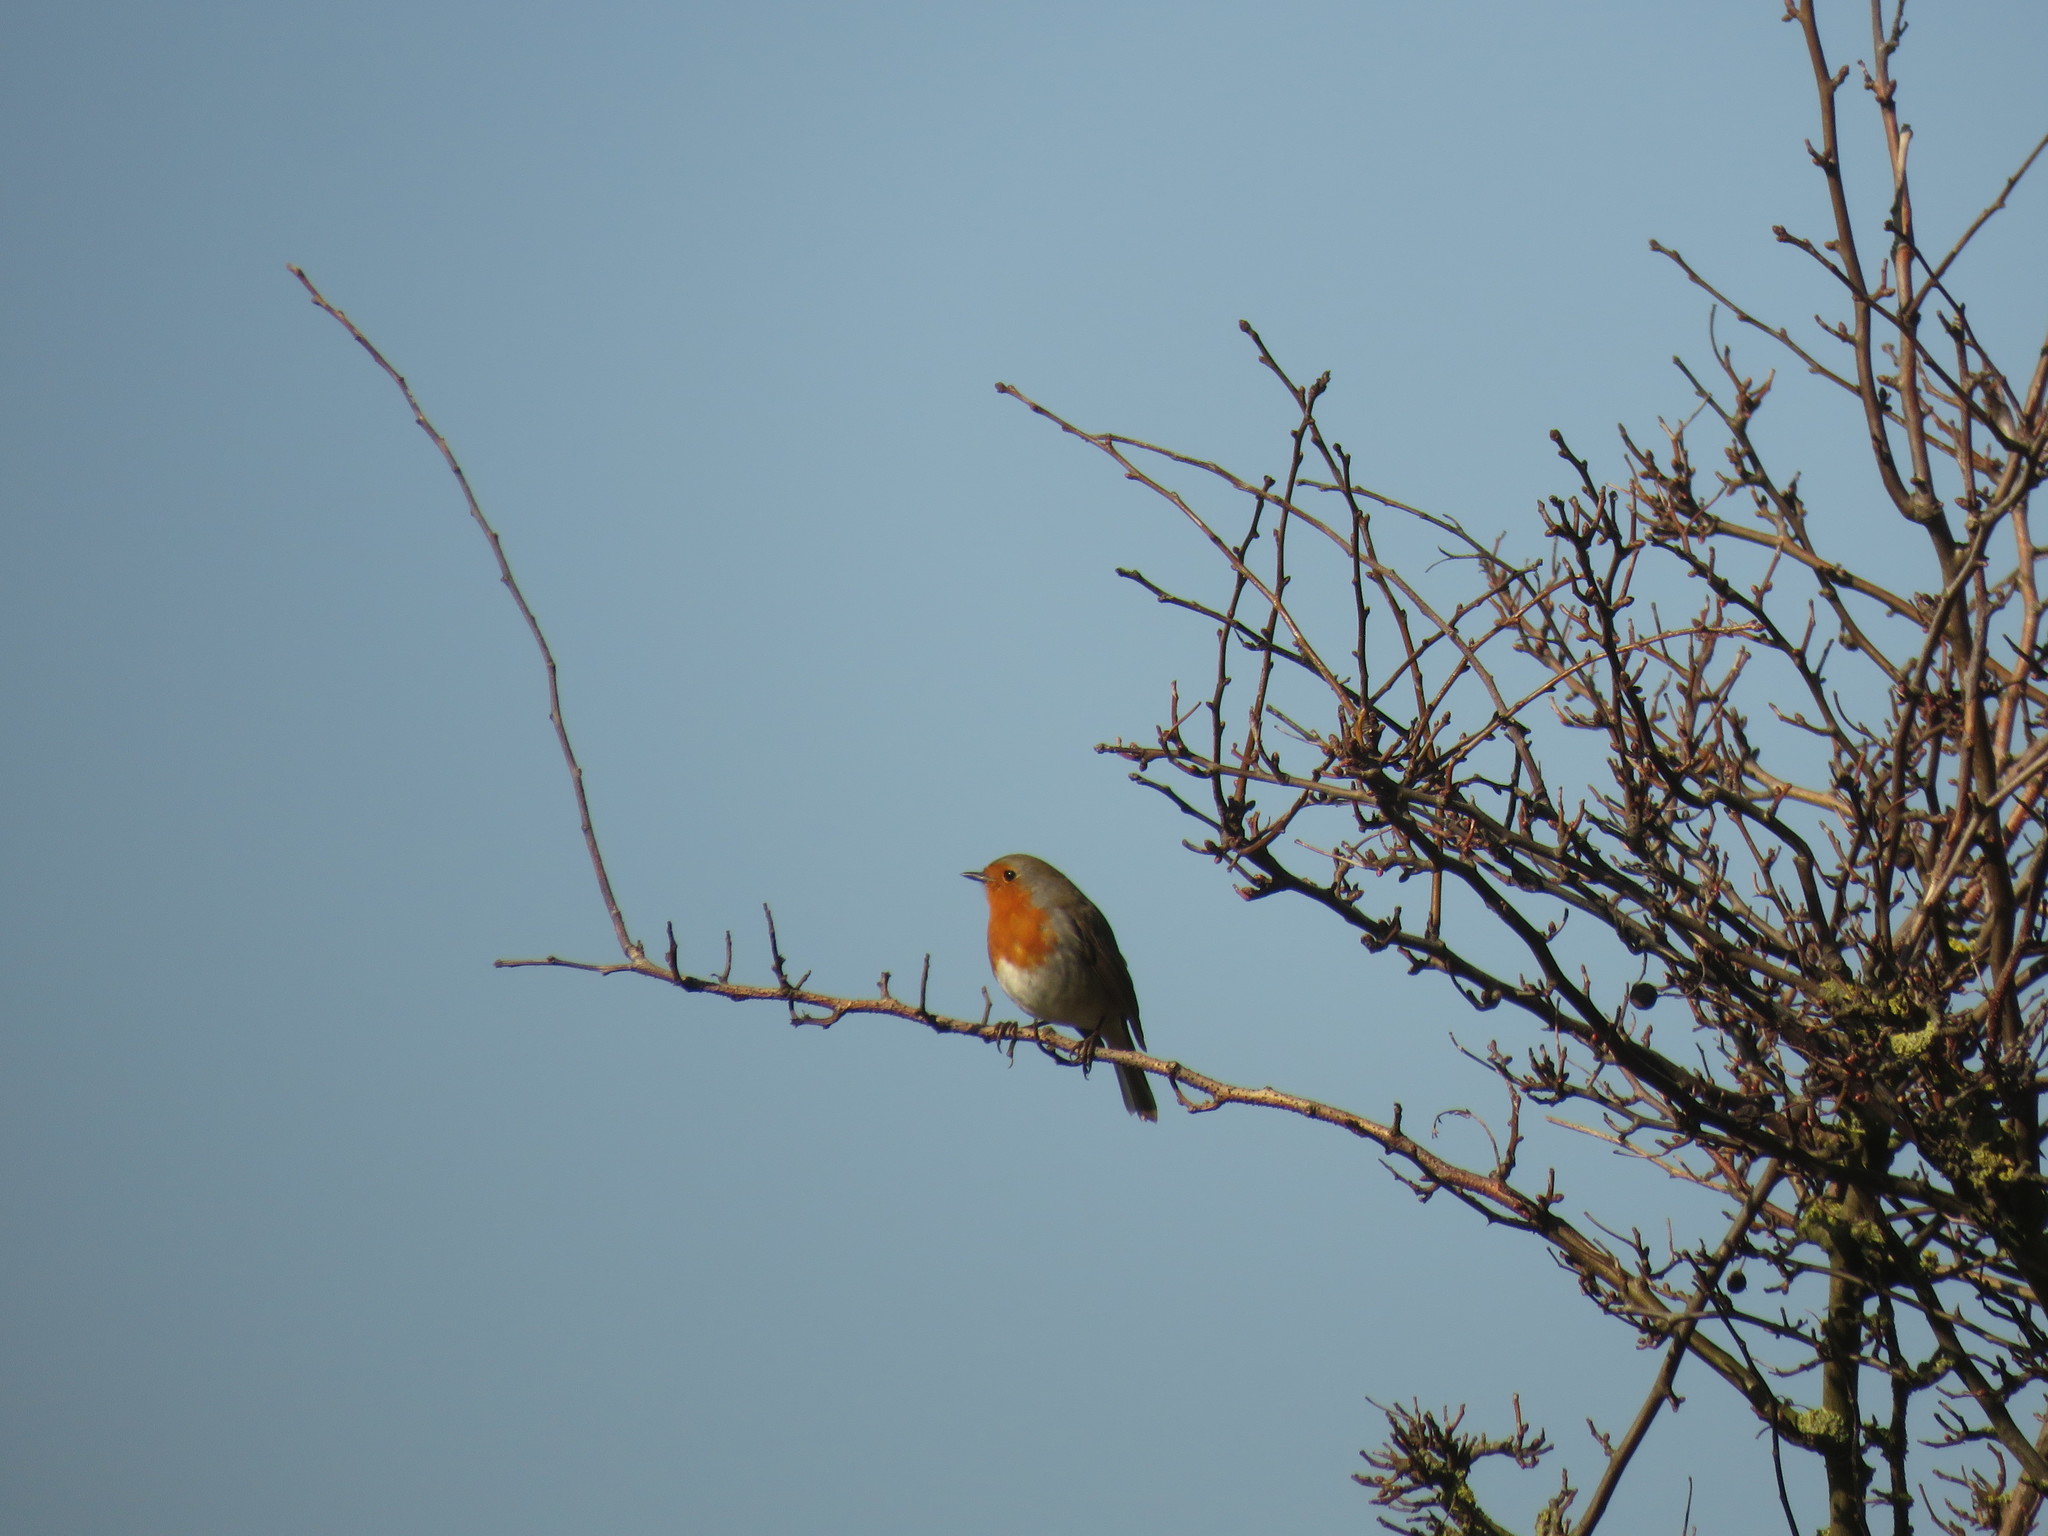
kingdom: Animalia
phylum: Chordata
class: Aves
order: Passeriformes
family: Muscicapidae
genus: Erithacus
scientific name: Erithacus rubecula
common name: European robin
